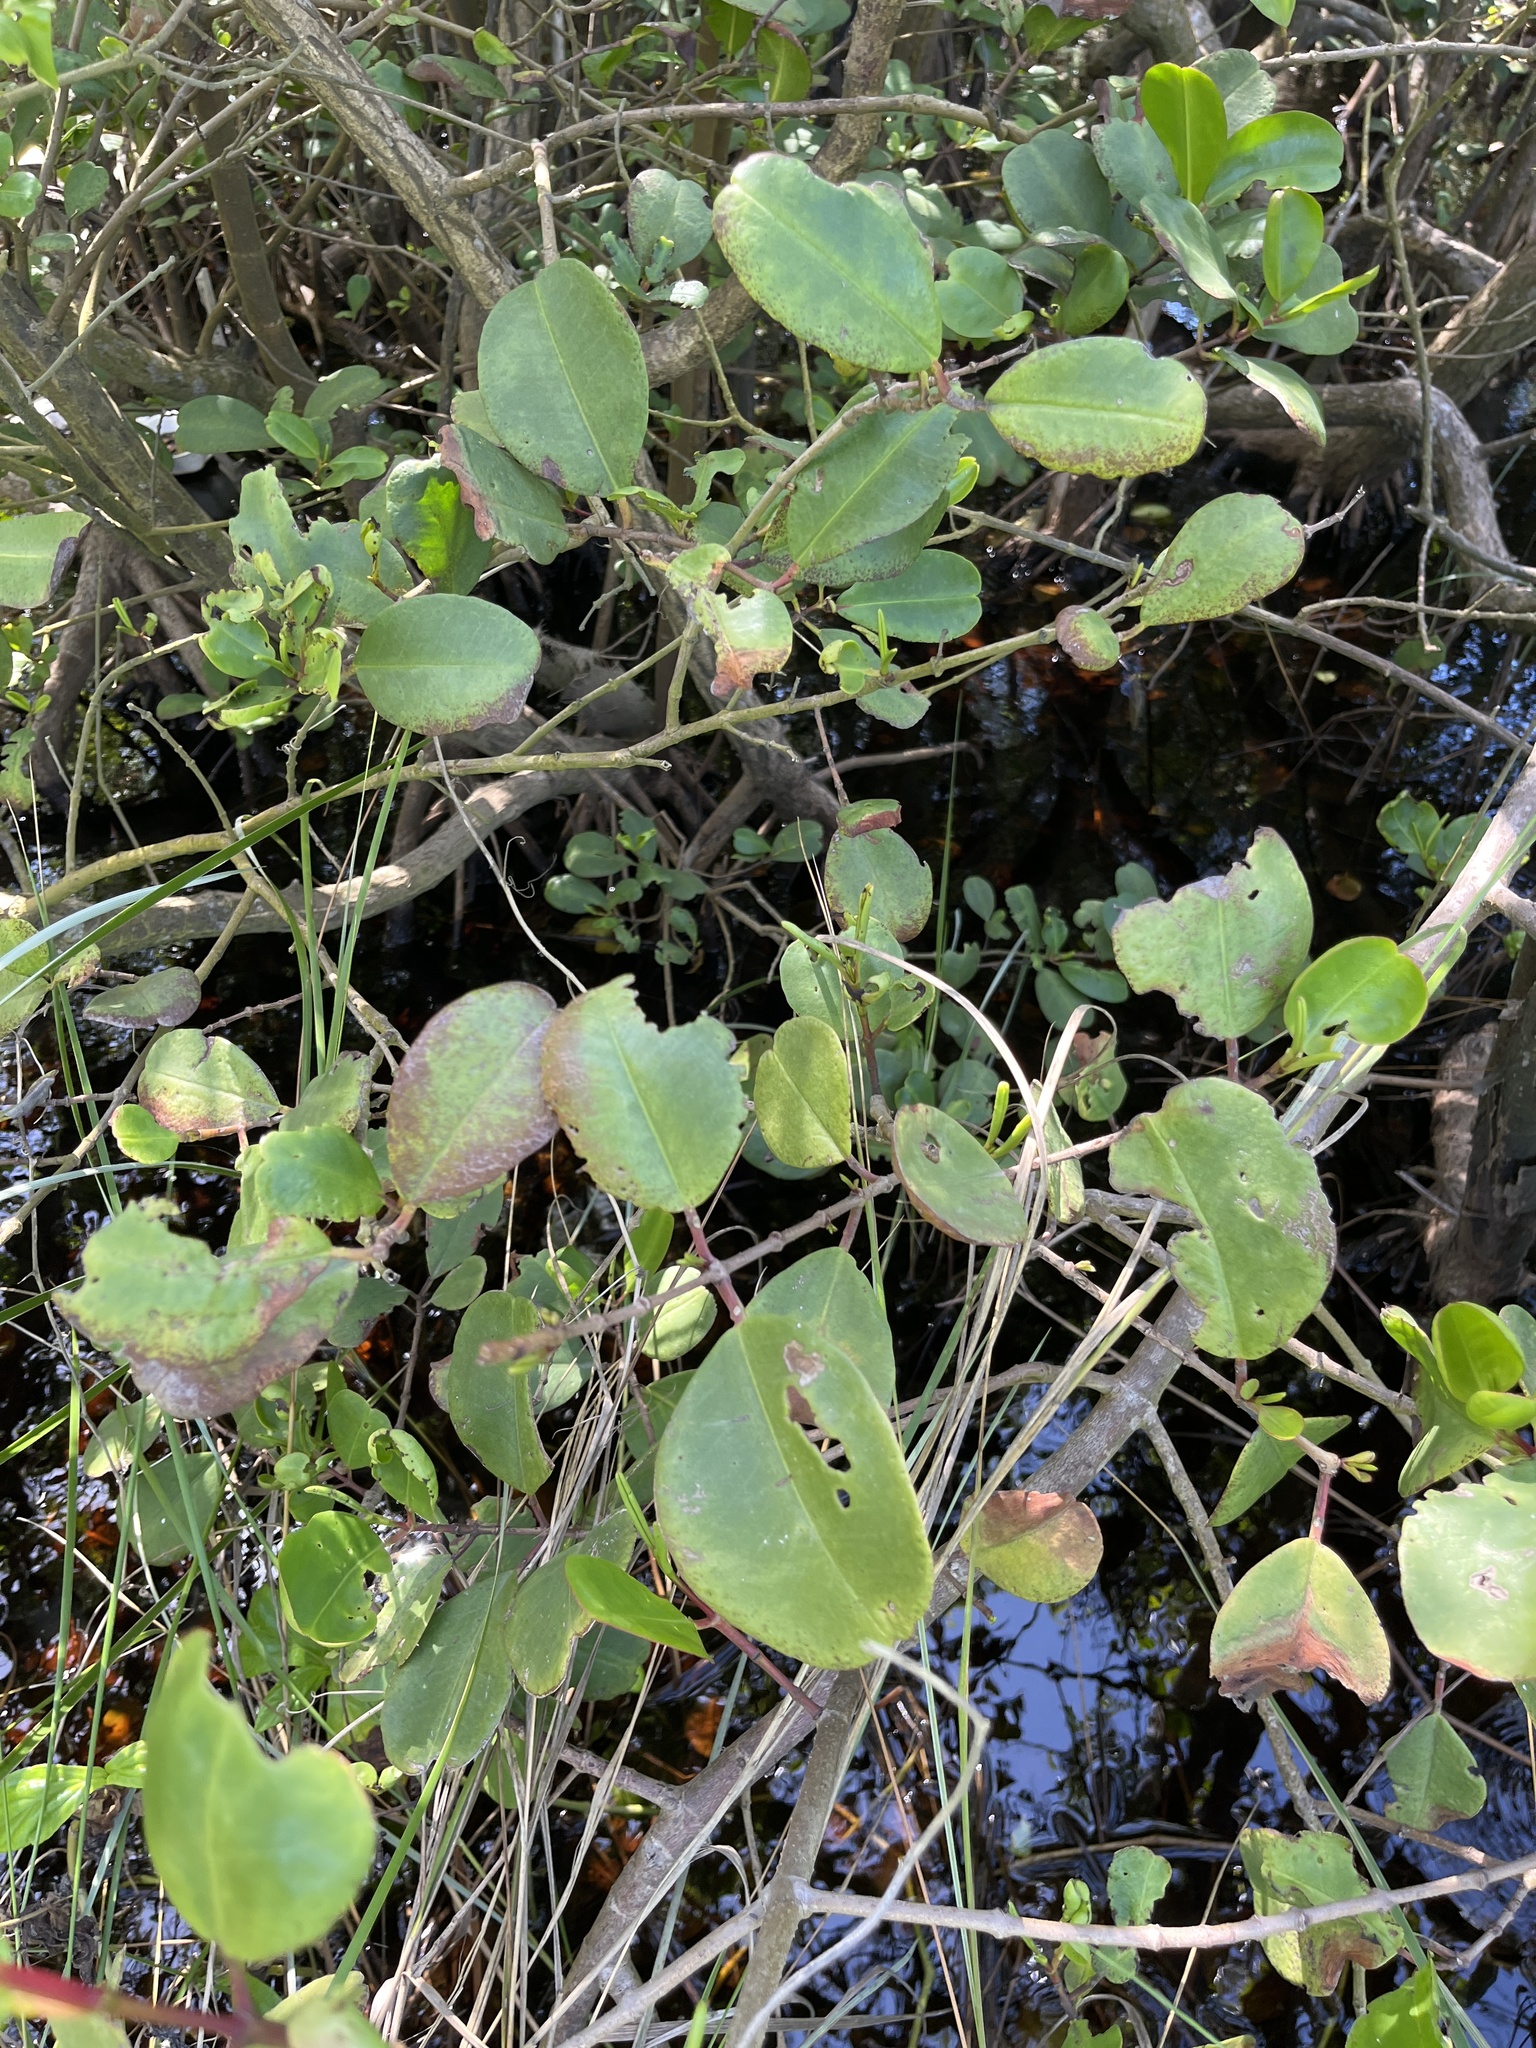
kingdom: Plantae
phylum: Tracheophyta
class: Magnoliopsida
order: Myrtales
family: Combretaceae
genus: Laguncularia
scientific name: Laguncularia racemosa
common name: White mangrove
